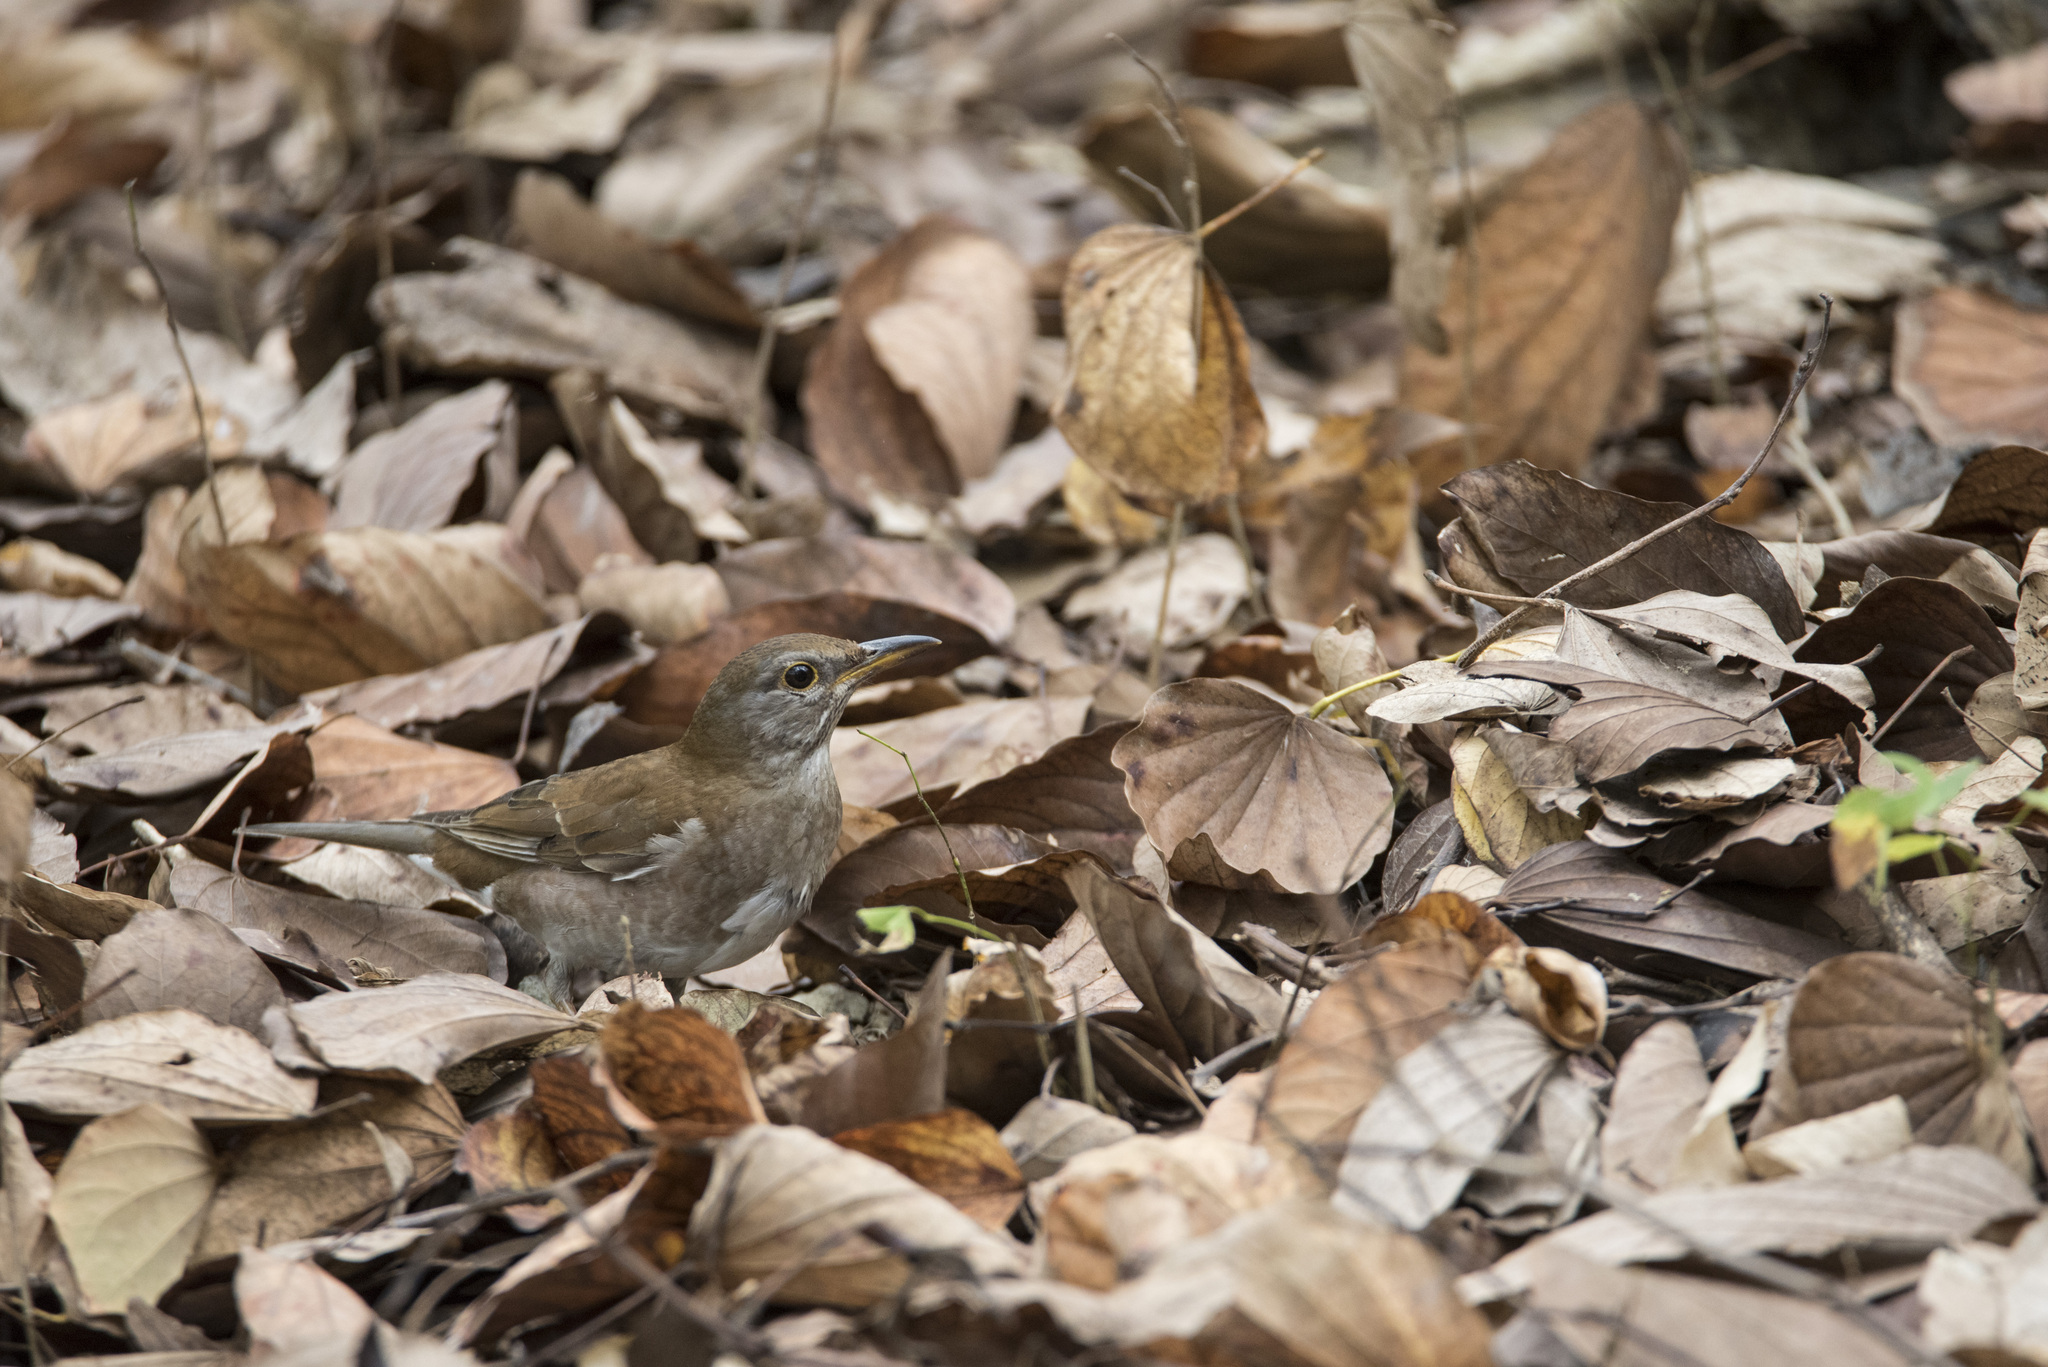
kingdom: Animalia
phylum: Chordata
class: Aves
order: Passeriformes
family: Turdidae
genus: Turdus
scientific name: Turdus pallidus
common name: Pale thrush
